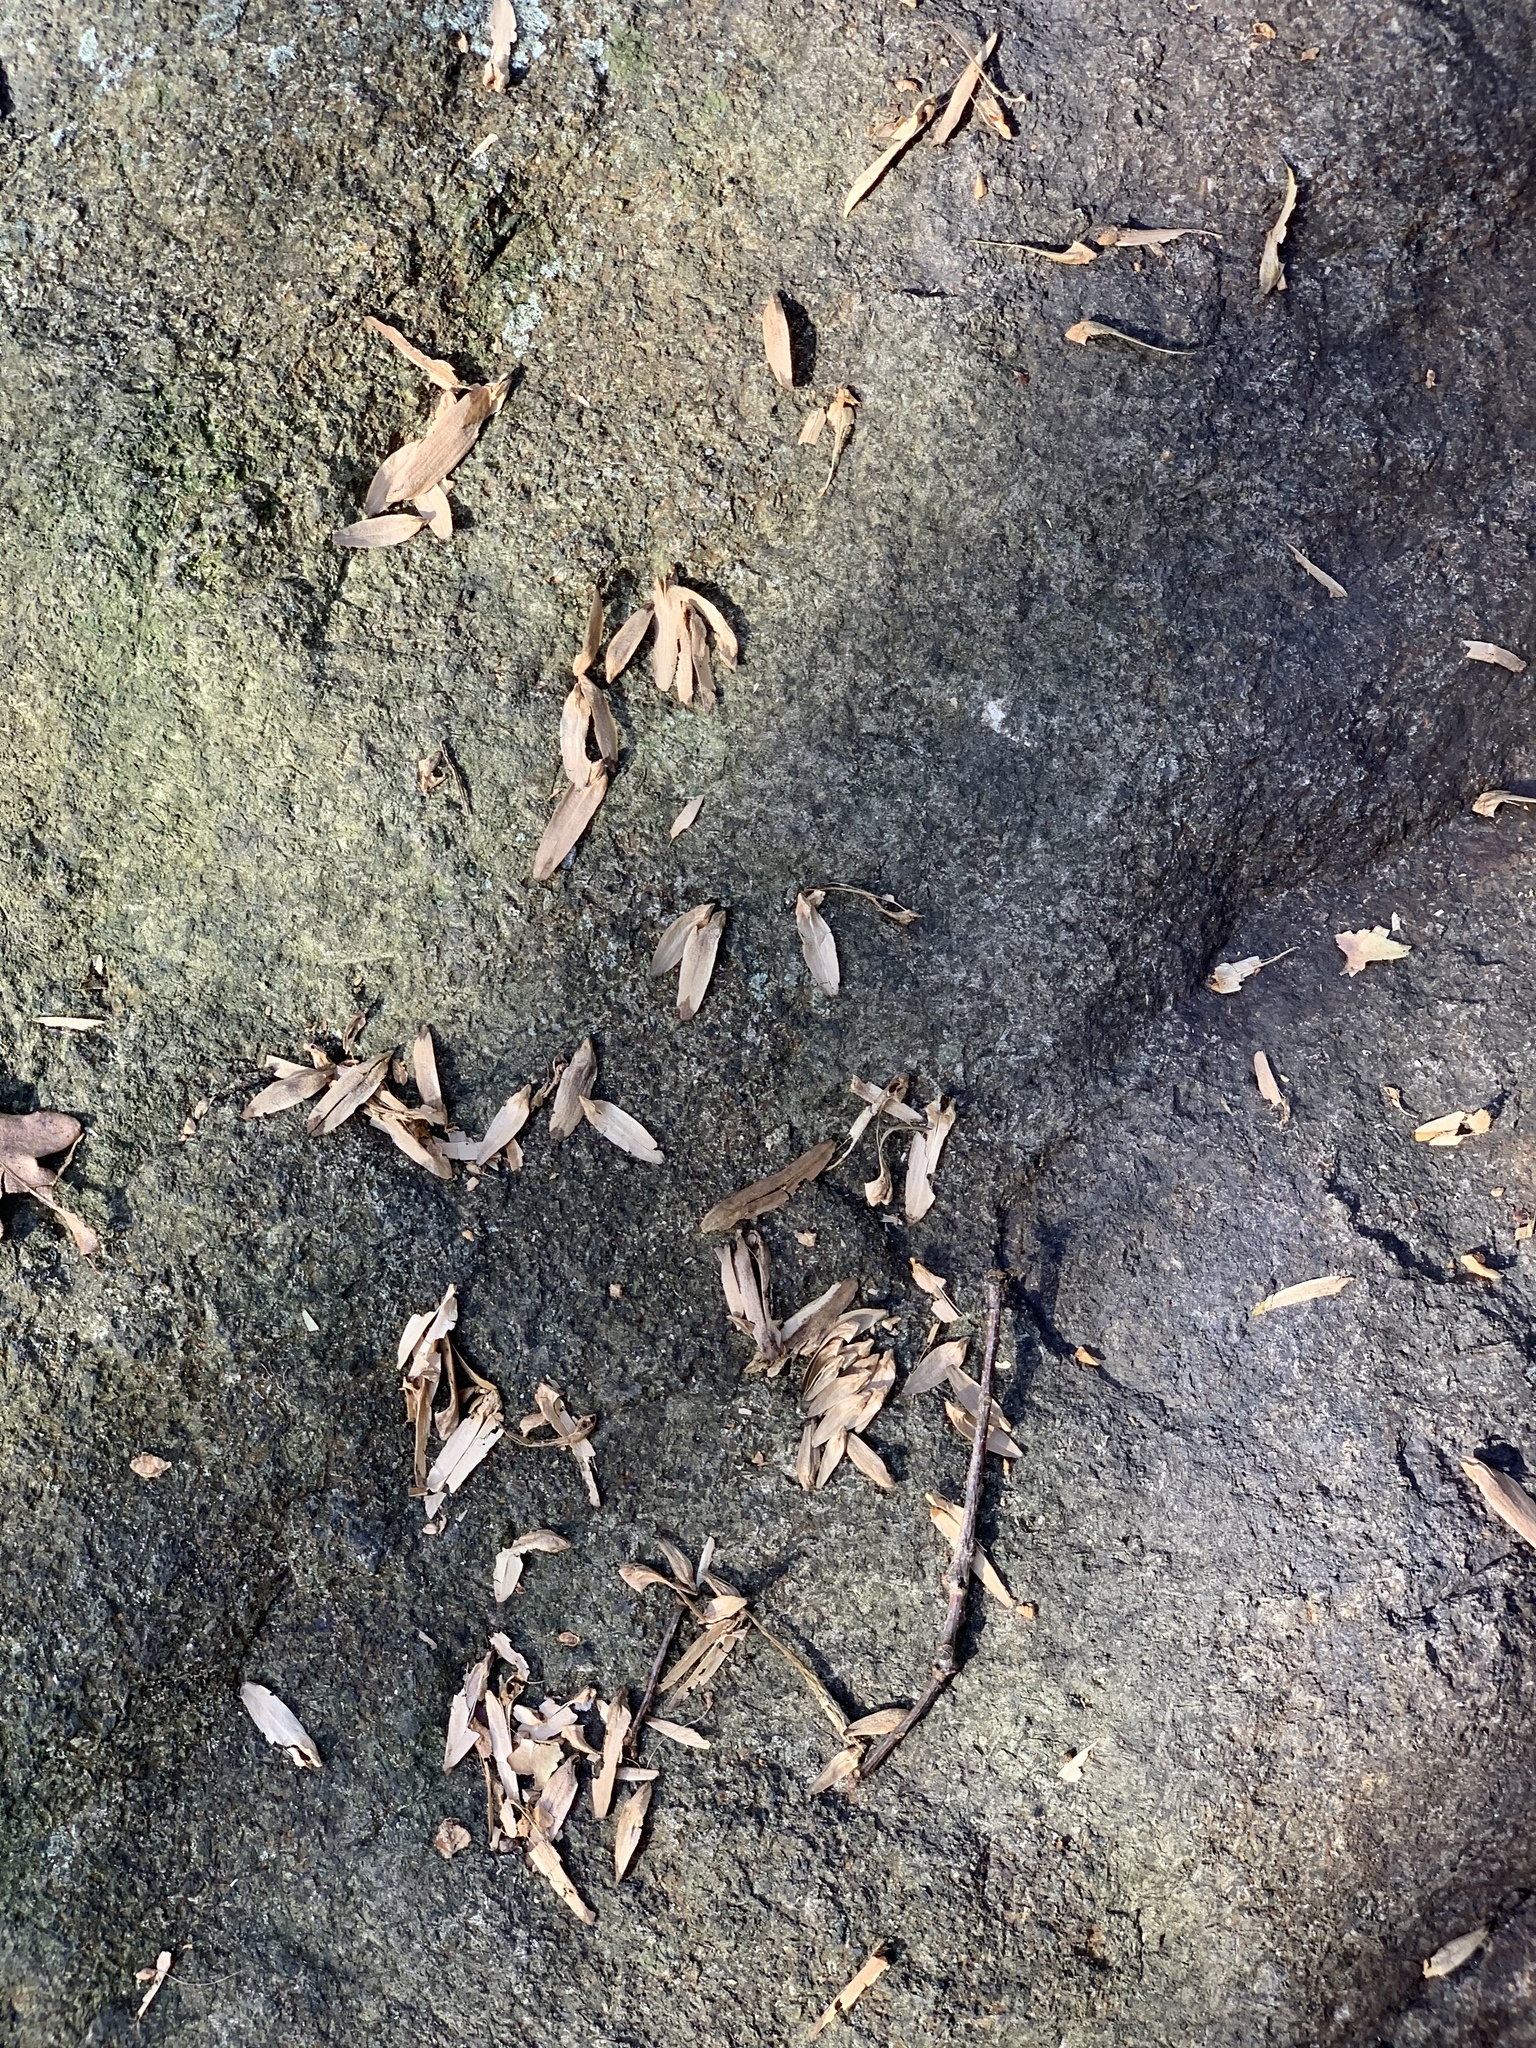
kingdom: Plantae
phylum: Tracheophyta
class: Magnoliopsida
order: Magnoliales
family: Magnoliaceae
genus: Liriodendron
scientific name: Liriodendron tulipifera
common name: Tulip tree
